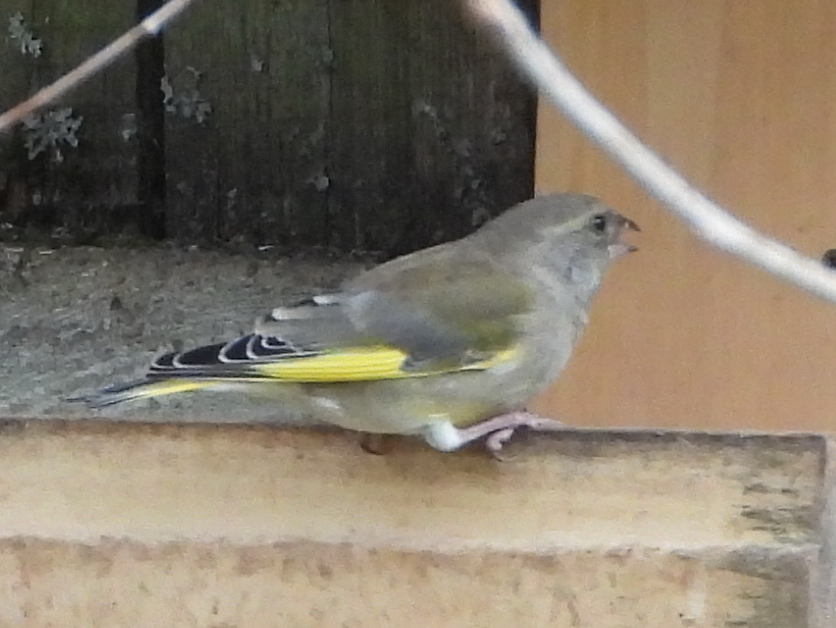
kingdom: Plantae
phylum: Tracheophyta
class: Liliopsida
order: Poales
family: Poaceae
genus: Chloris
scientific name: Chloris chloris
